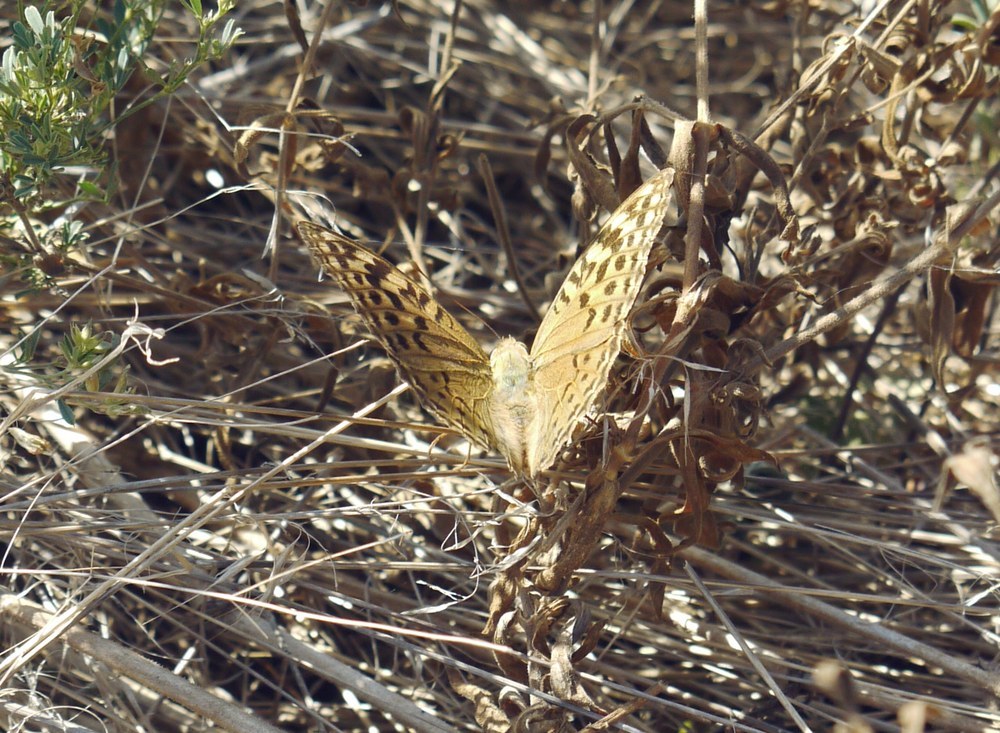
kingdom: Animalia
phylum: Arthropoda
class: Insecta
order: Lepidoptera
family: Nymphalidae
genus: Damora
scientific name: Damora pandora
